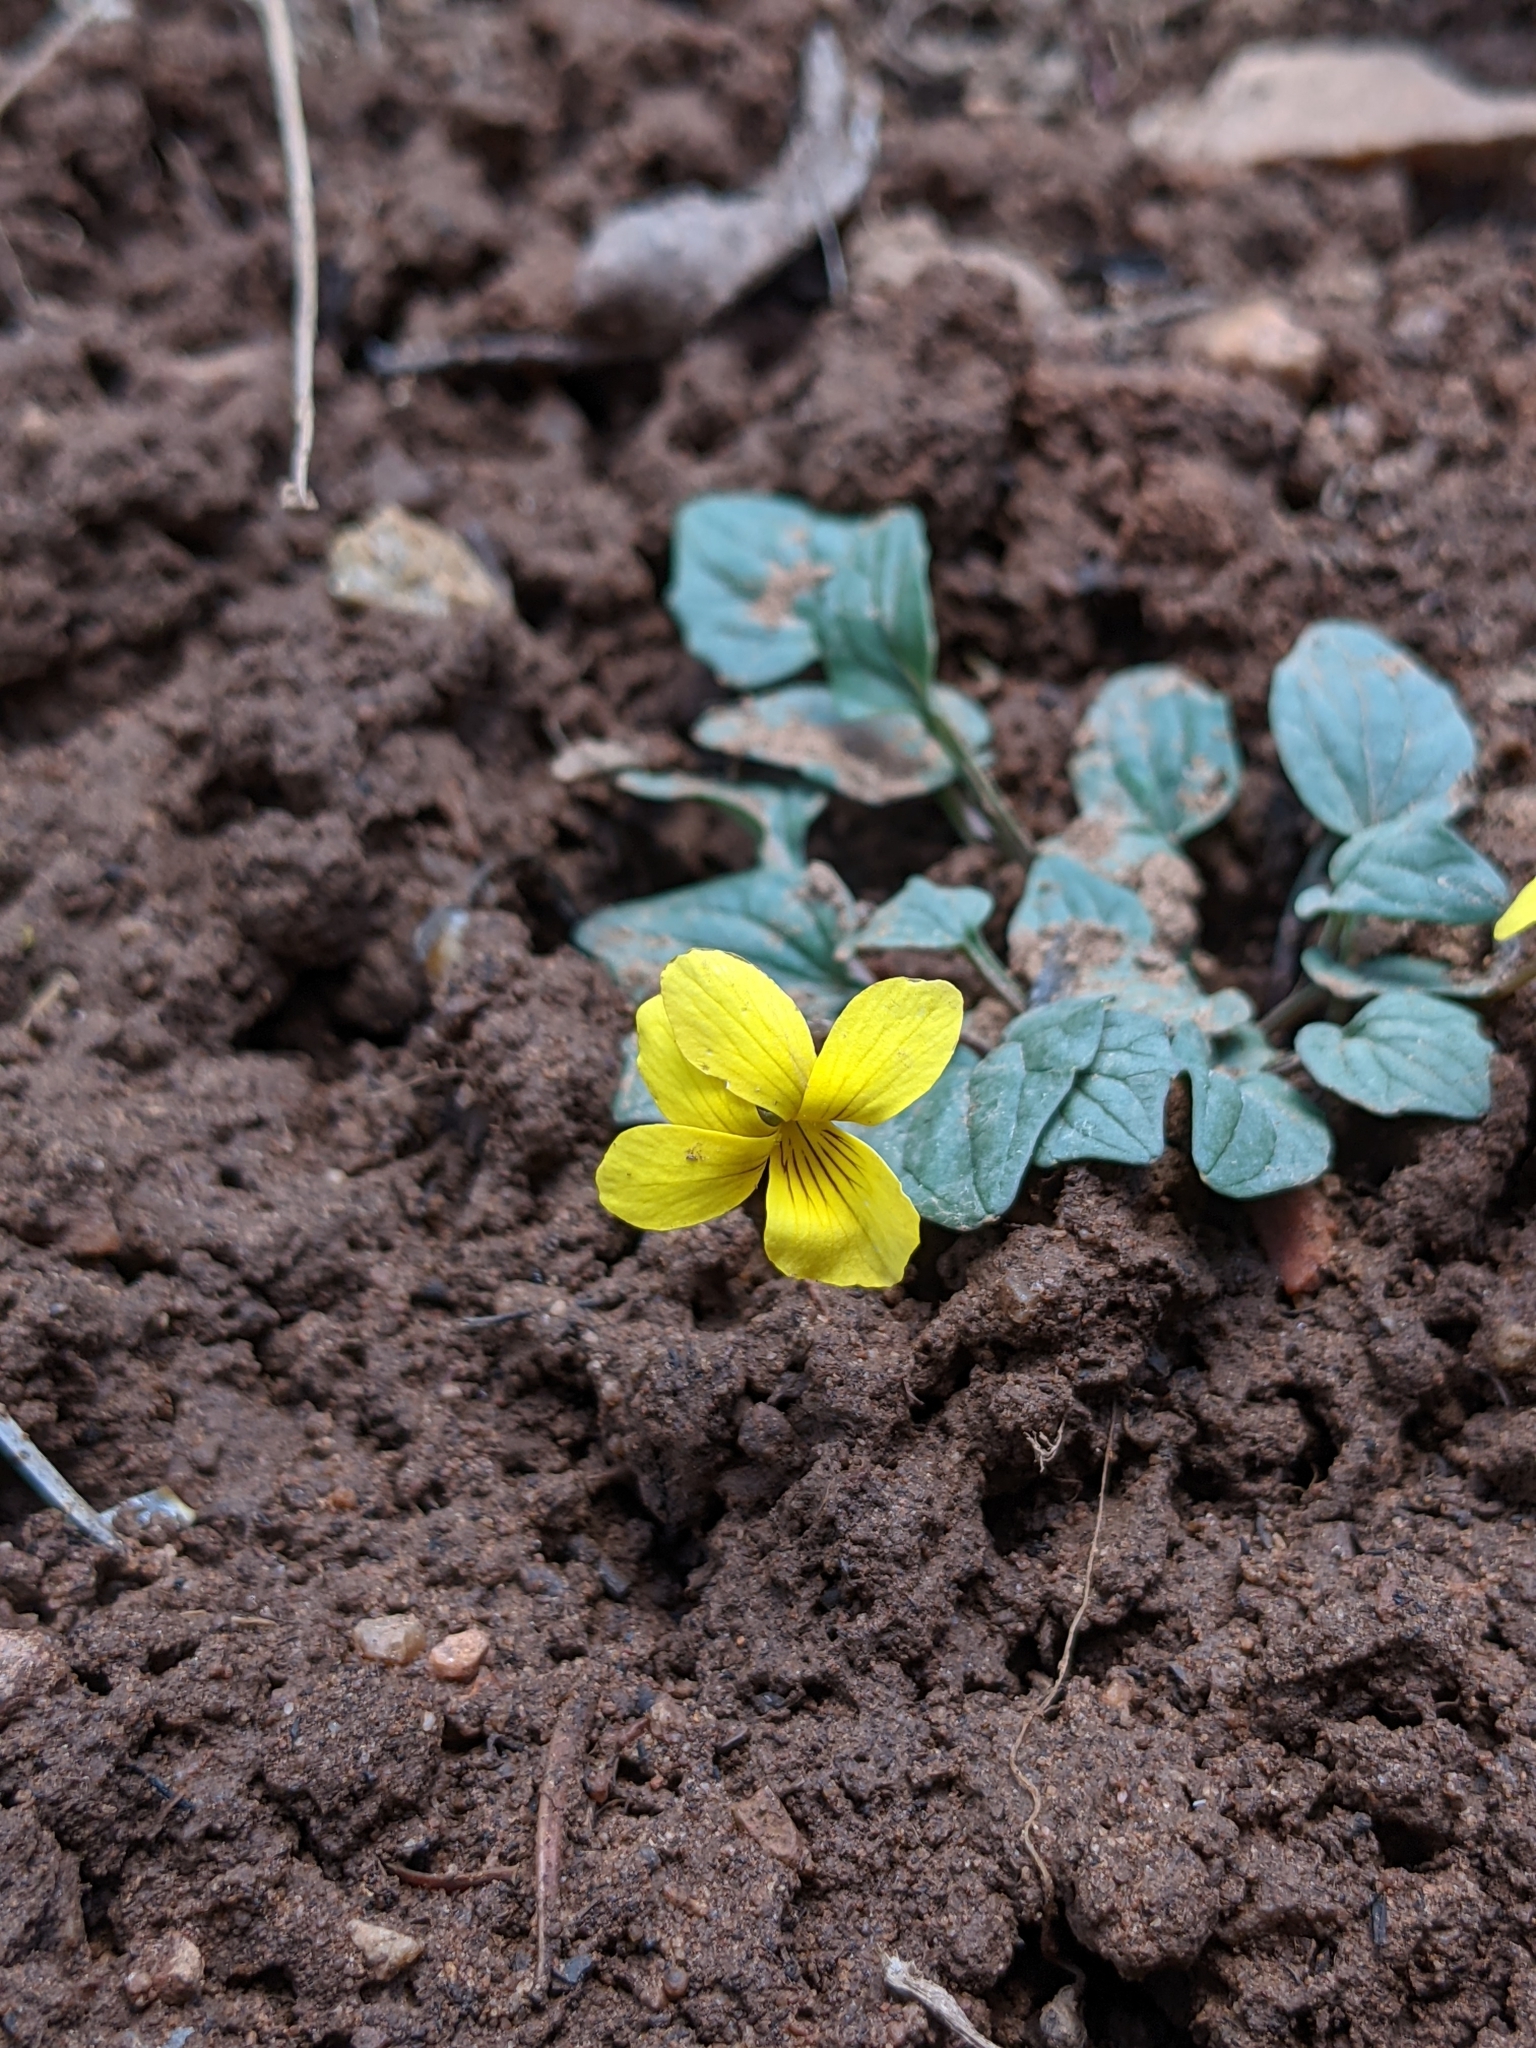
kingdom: Plantae
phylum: Tracheophyta
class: Magnoliopsida
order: Malpighiales
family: Violaceae
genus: Viola
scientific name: Viola purpurea
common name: Pine violet
